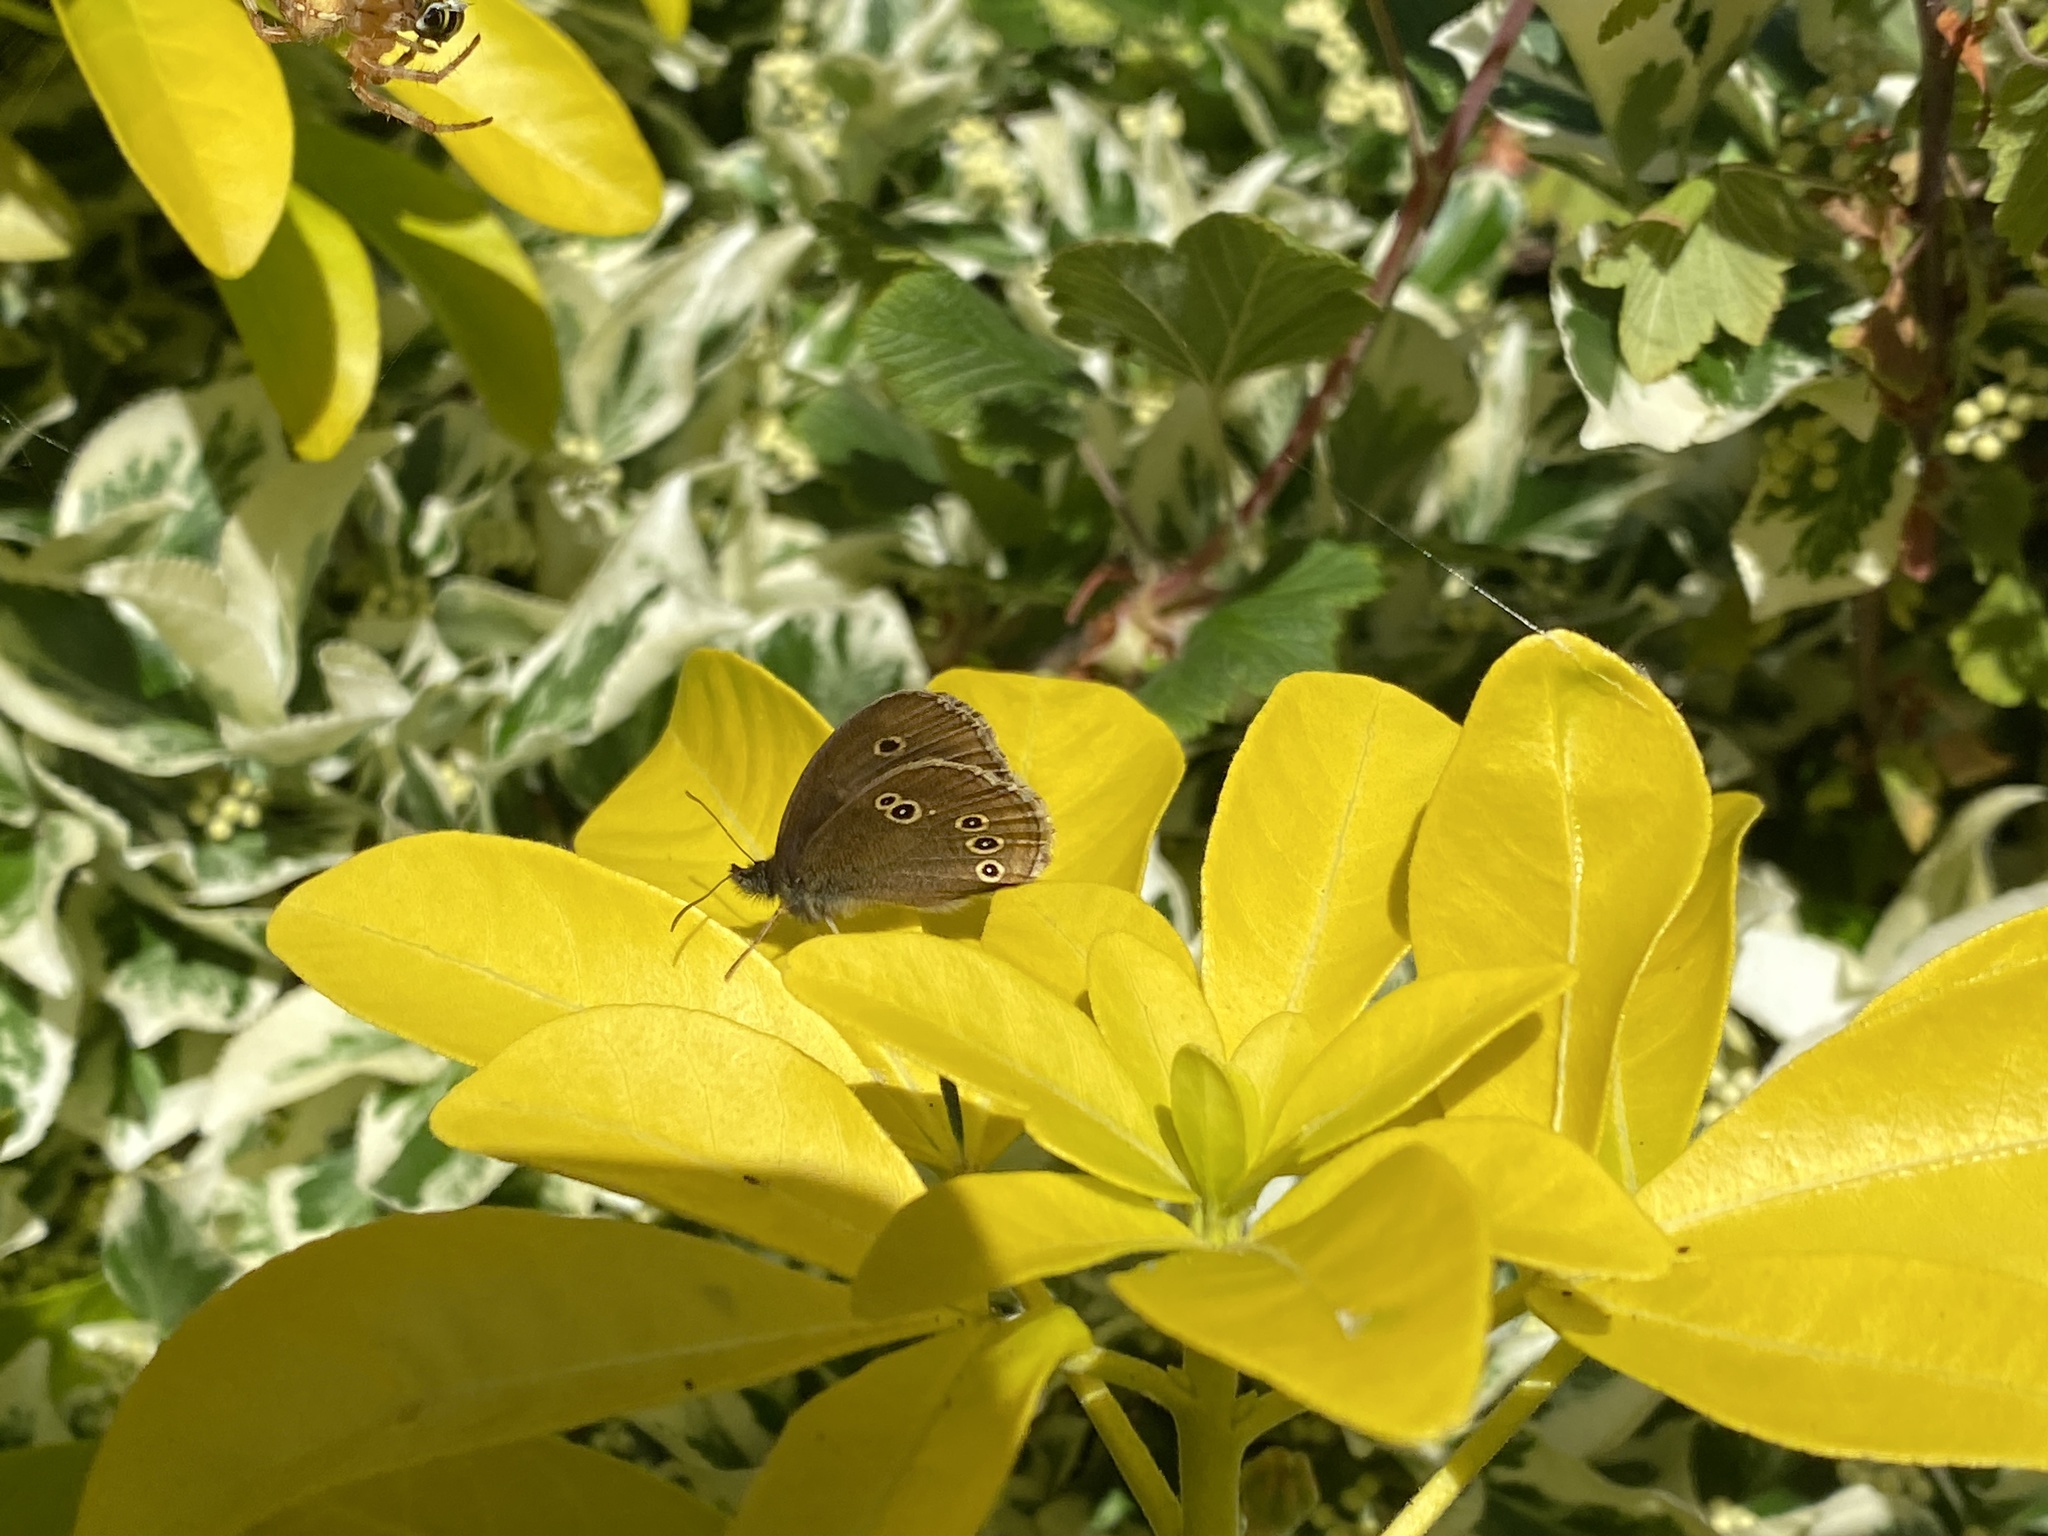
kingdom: Animalia
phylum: Arthropoda
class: Insecta
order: Lepidoptera
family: Nymphalidae
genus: Aphantopus
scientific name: Aphantopus hyperantus
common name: Ringlet
